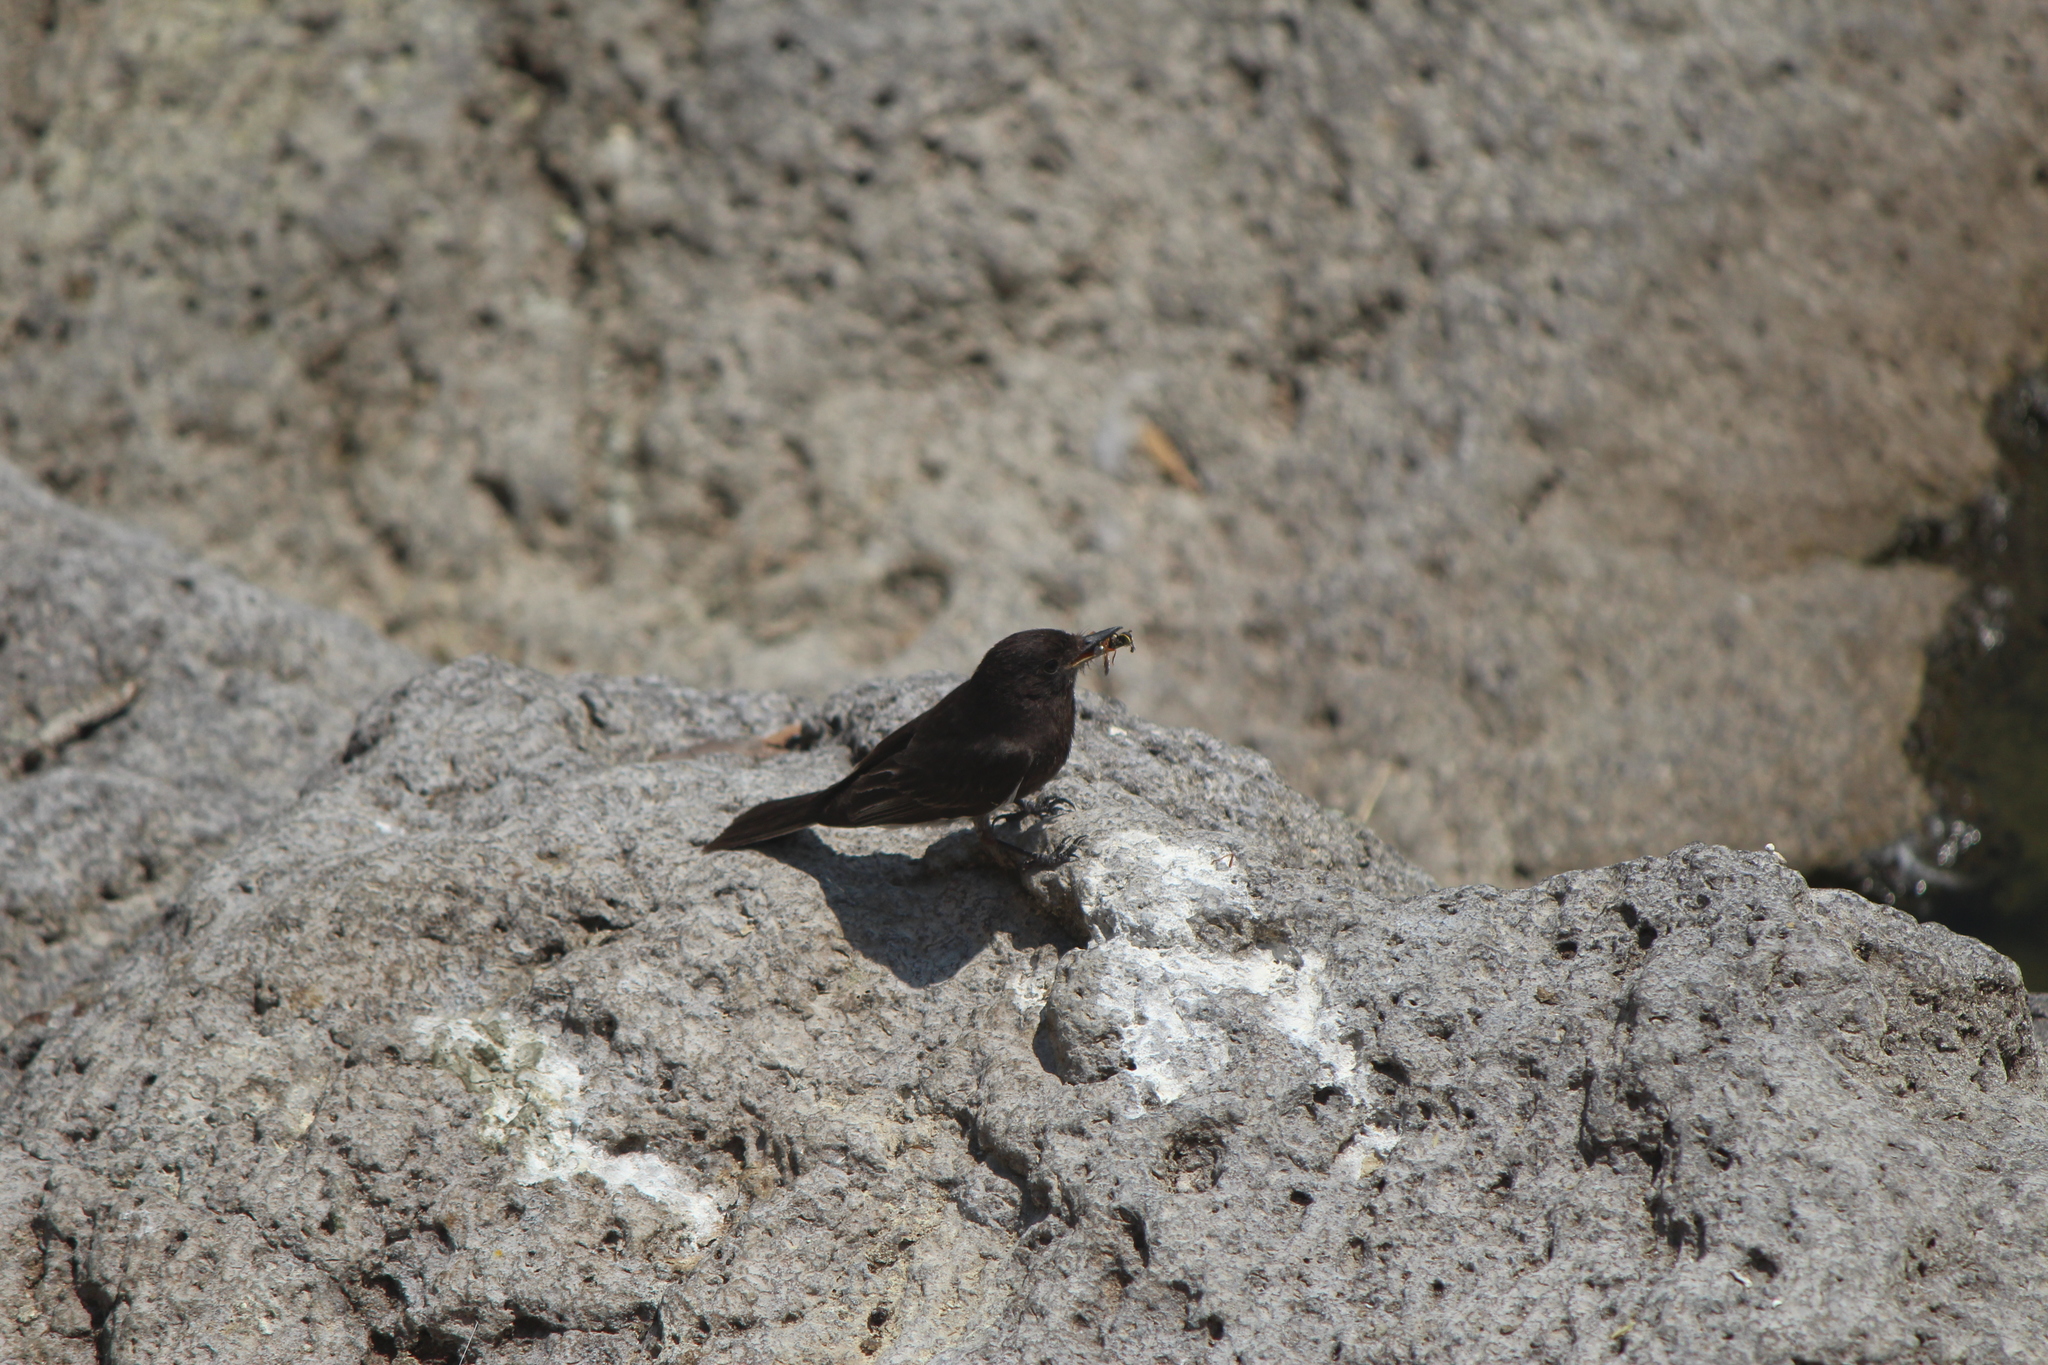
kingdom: Animalia
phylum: Chordata
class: Aves
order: Passeriformes
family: Tyrannidae
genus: Sayornis
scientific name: Sayornis nigricans
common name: Black phoebe
